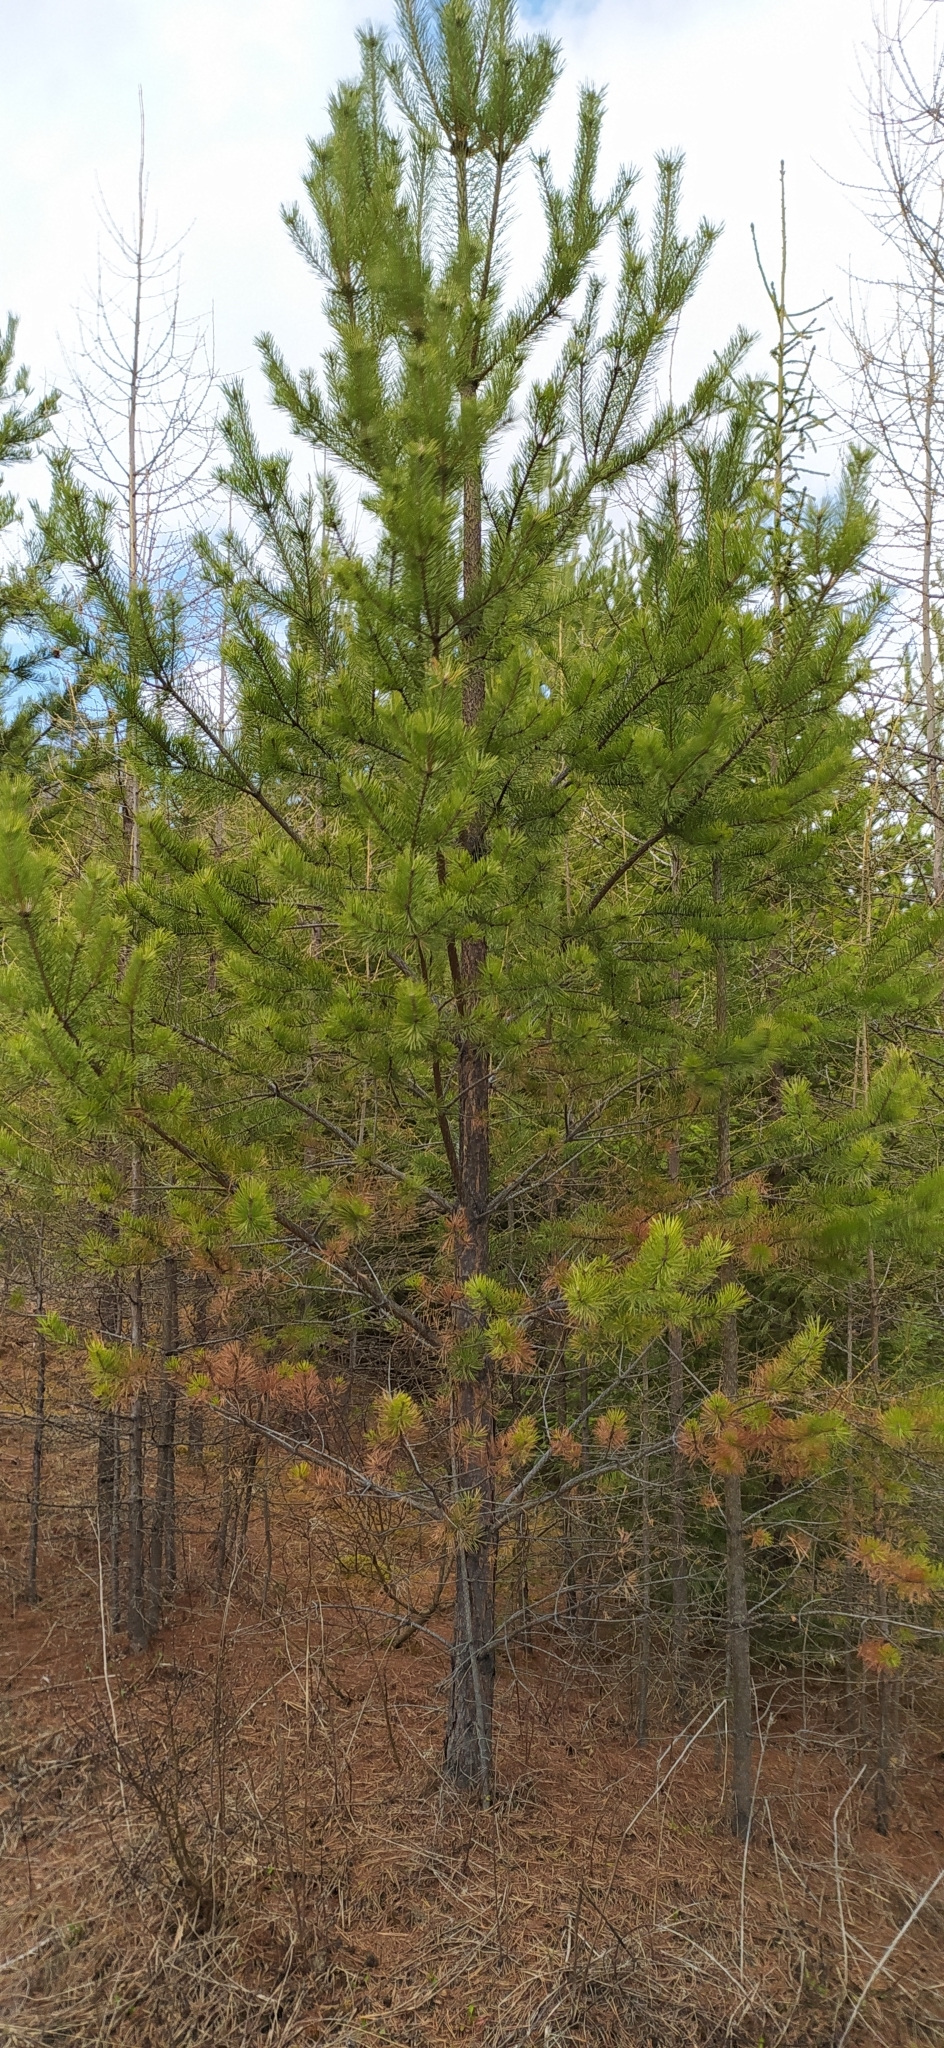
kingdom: Plantae
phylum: Tracheophyta
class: Pinopsida
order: Pinales
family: Pinaceae
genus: Pinus
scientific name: Pinus sylvestris
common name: Scots pine
